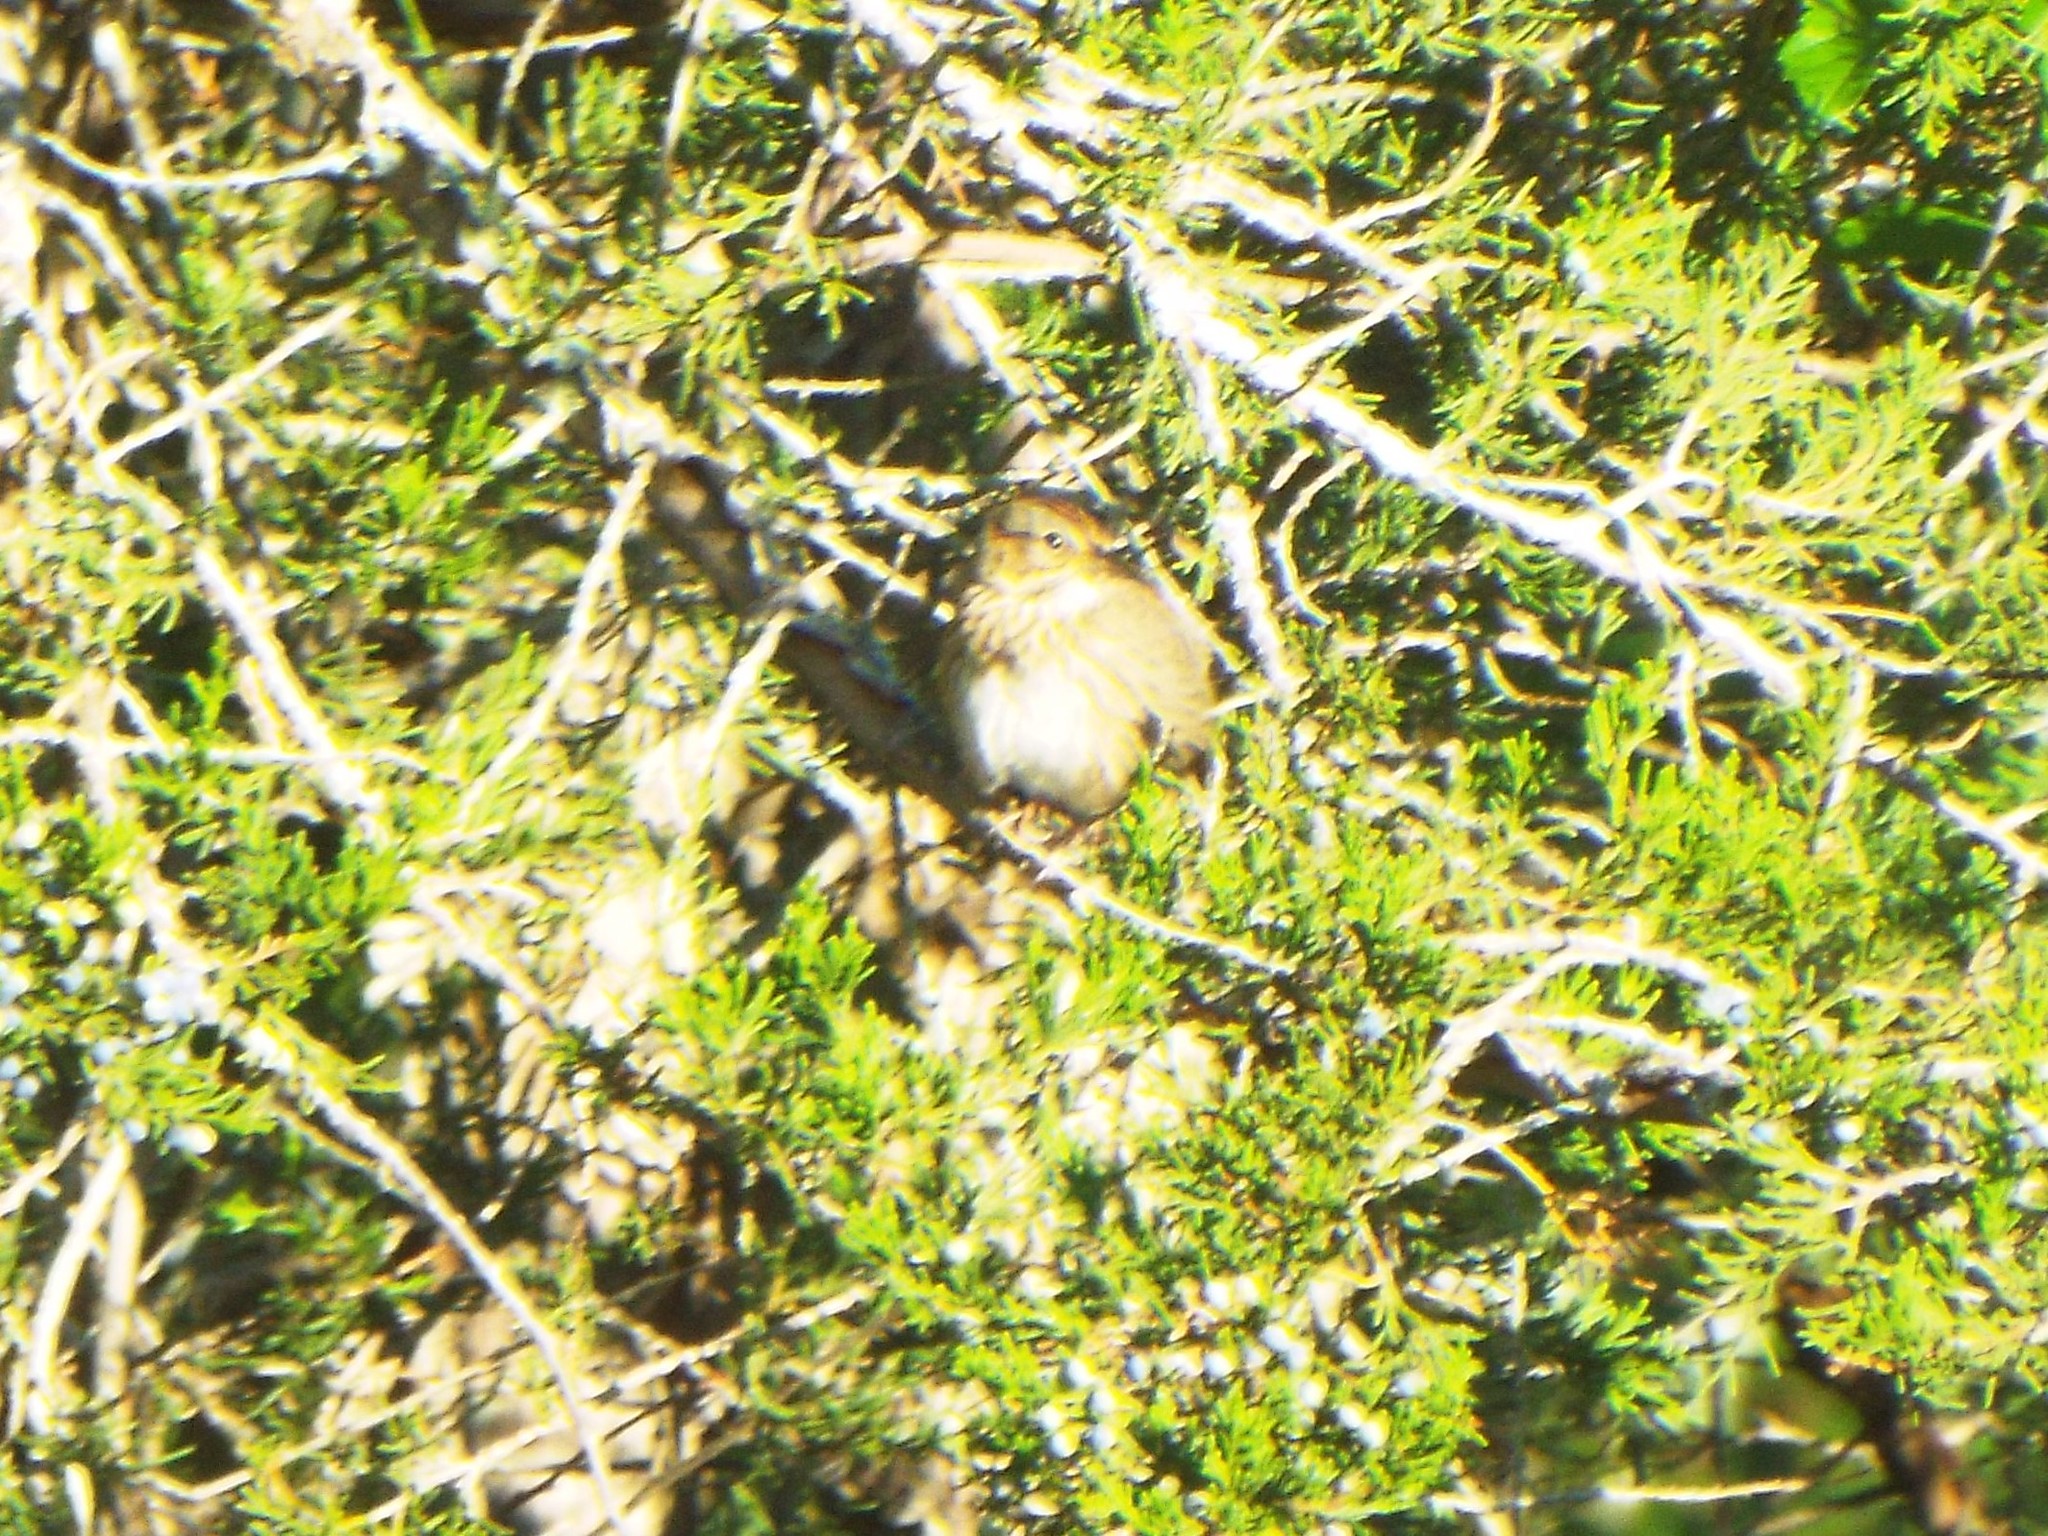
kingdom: Animalia
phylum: Chordata
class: Aves
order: Passeriformes
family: Passerellidae
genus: Melospiza
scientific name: Melospiza lincolnii
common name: Lincoln's sparrow
